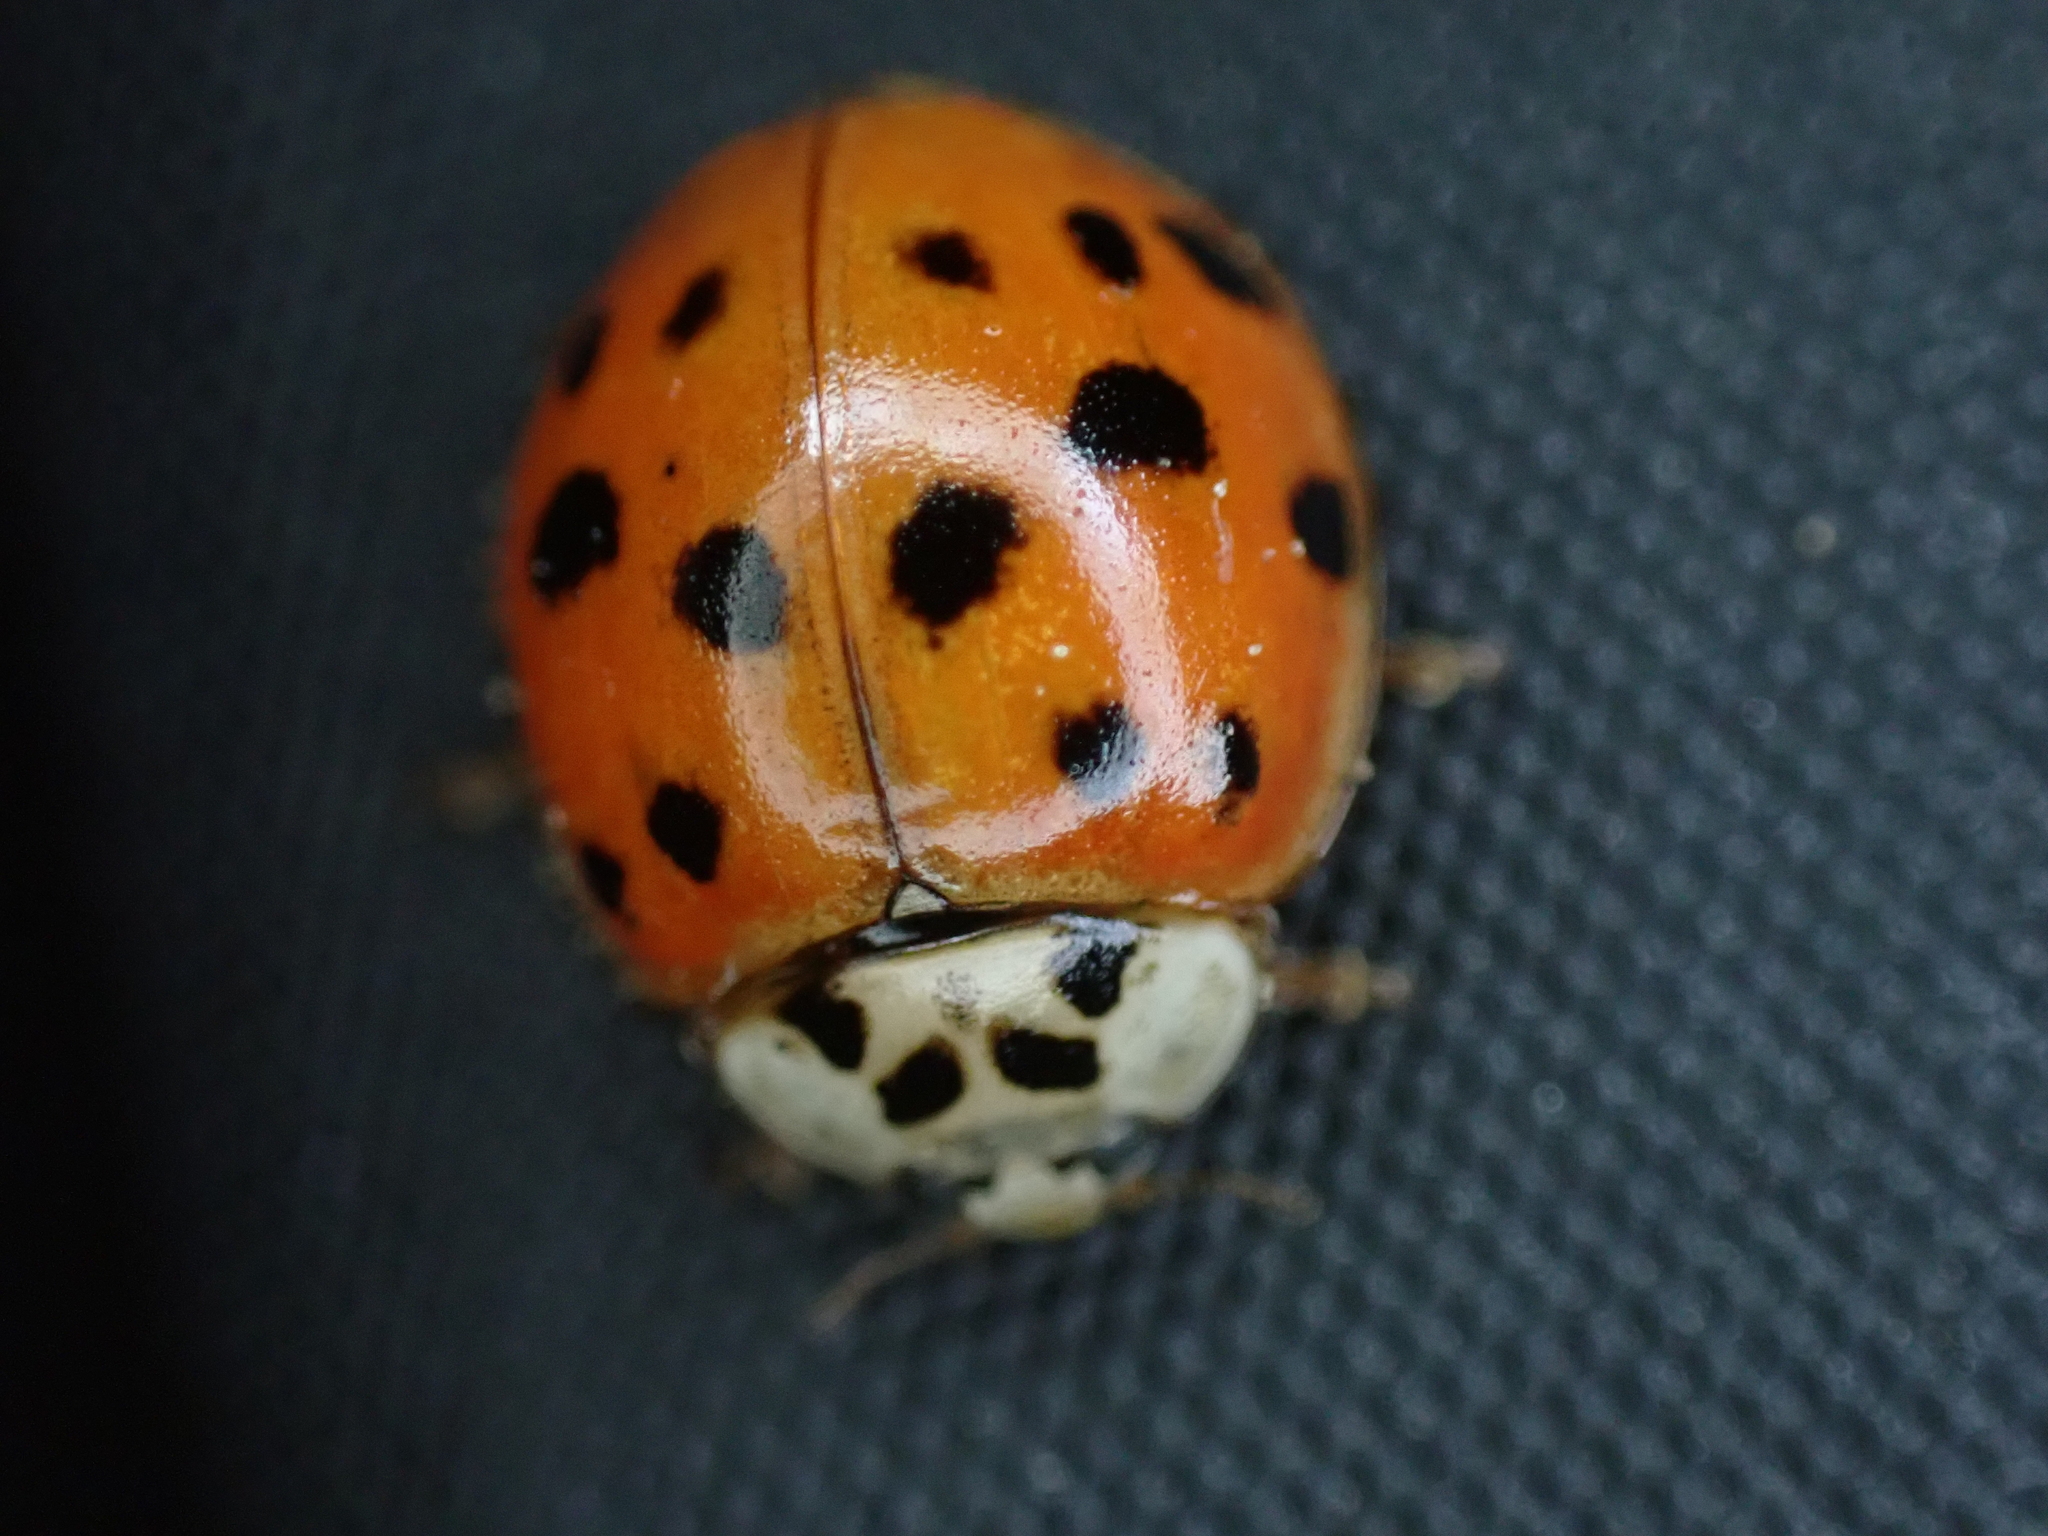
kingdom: Animalia
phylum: Arthropoda
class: Insecta
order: Coleoptera
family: Coccinellidae
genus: Harmonia
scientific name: Harmonia axyridis
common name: Harlequin ladybird
